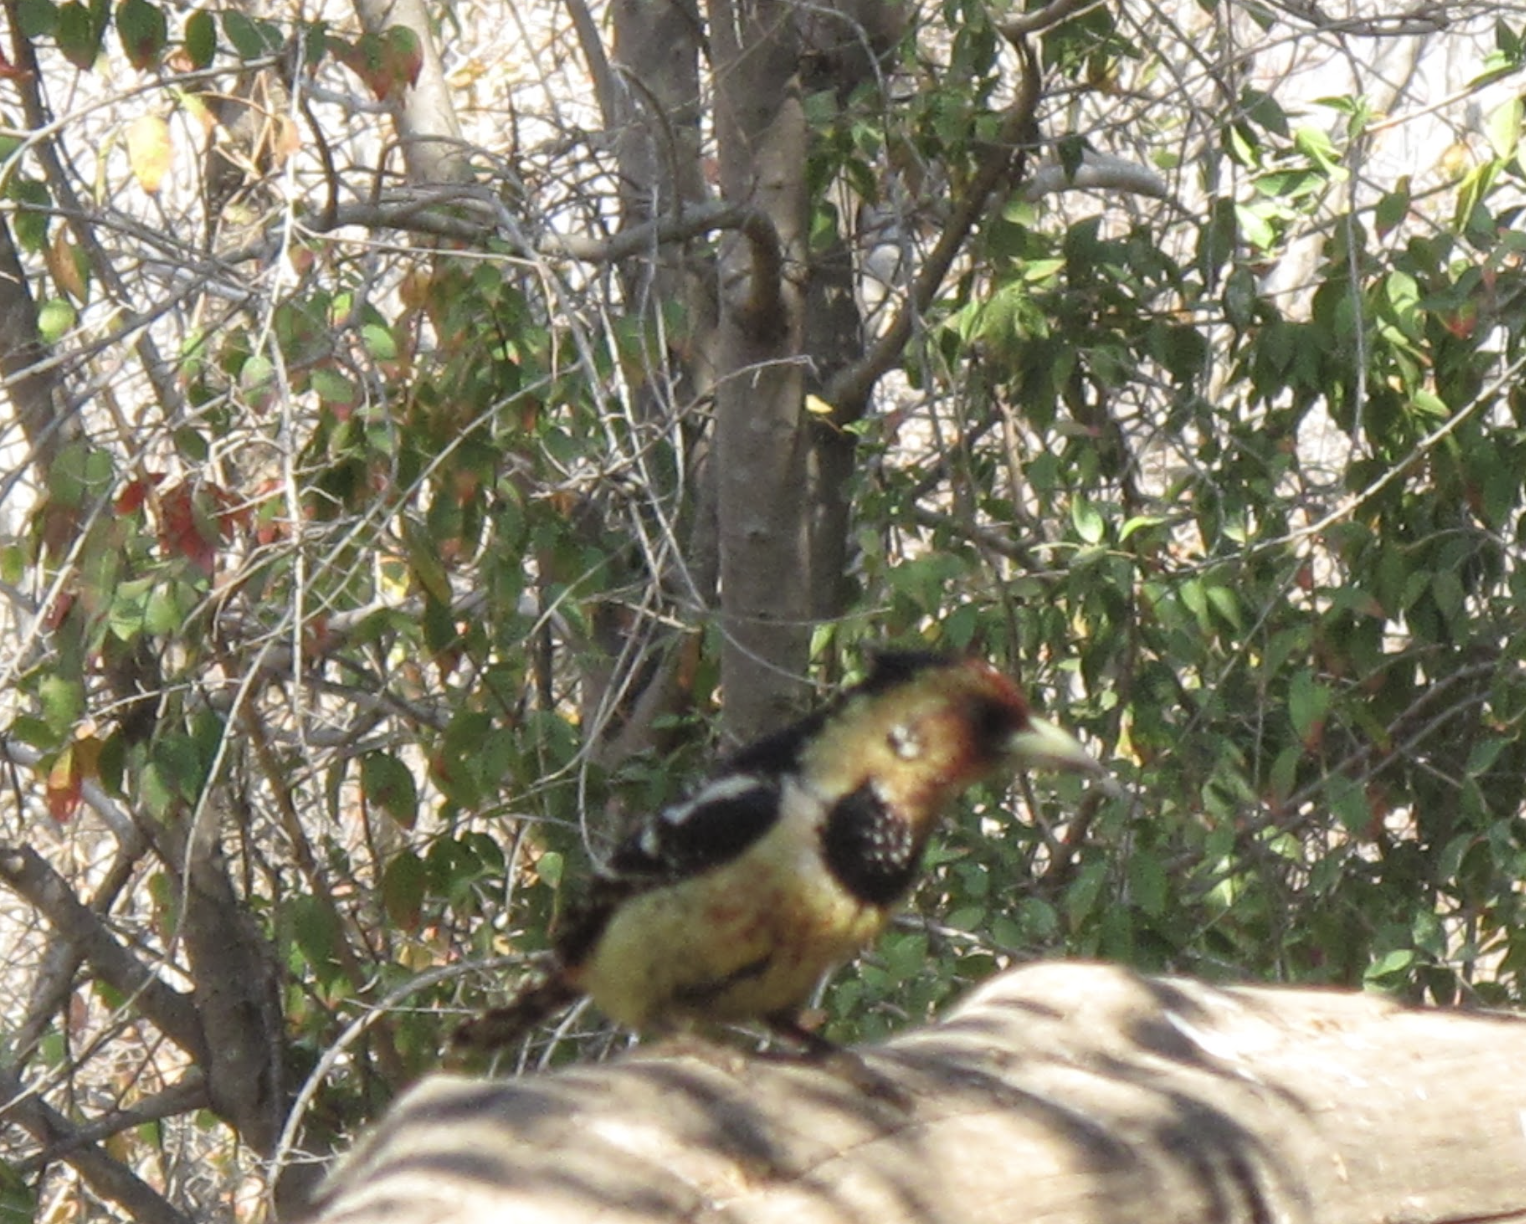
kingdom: Animalia
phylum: Chordata
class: Aves
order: Piciformes
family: Lybiidae
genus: Trachyphonus
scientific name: Trachyphonus vaillantii
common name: Crested barbet
